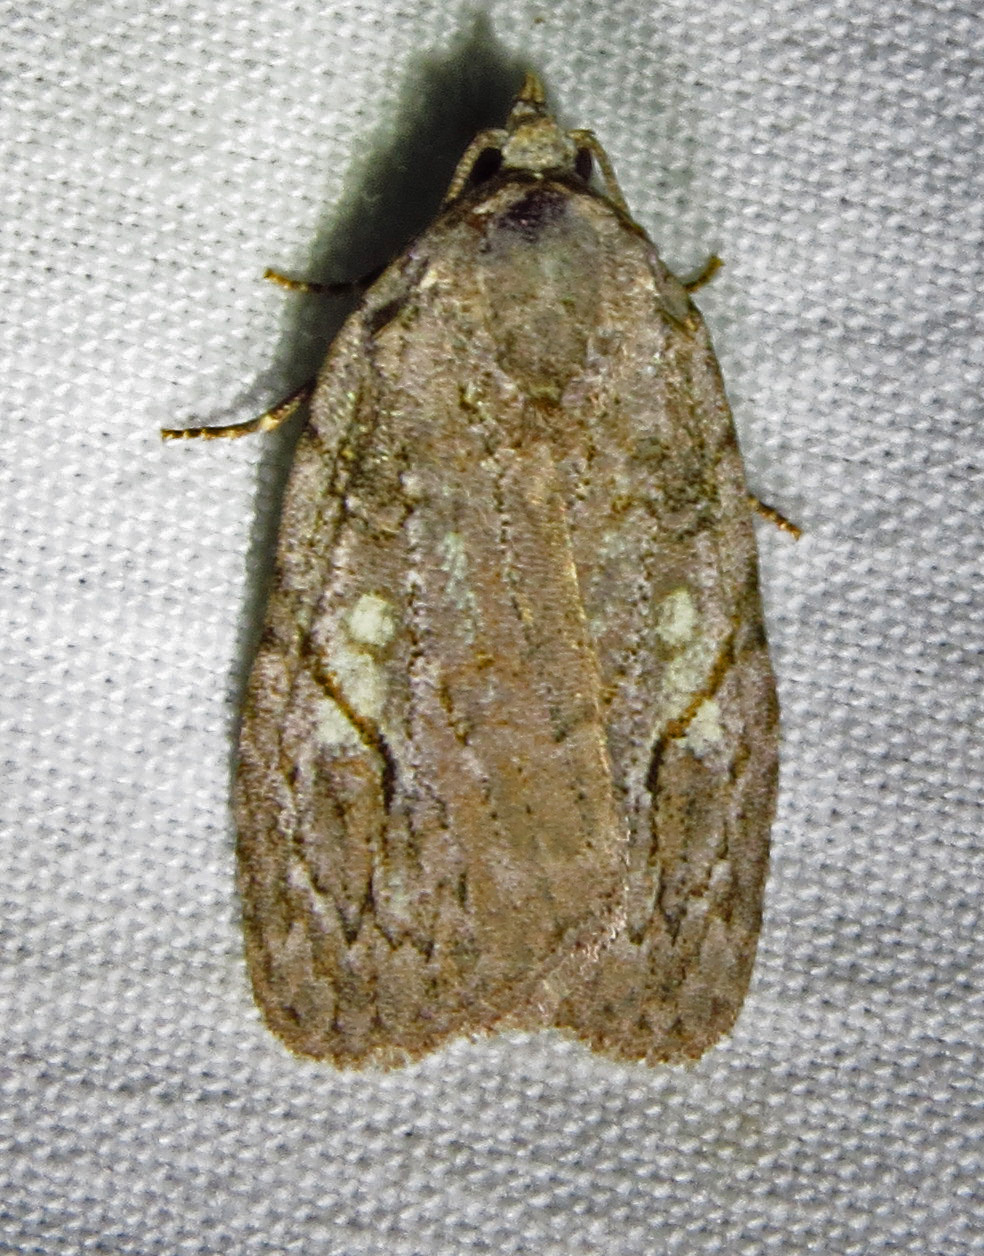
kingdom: Animalia
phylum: Arthropoda
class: Insecta
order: Lepidoptera
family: Noctuidae
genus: Balsa
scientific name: Balsa labecula
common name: White-blotched balsa moth
